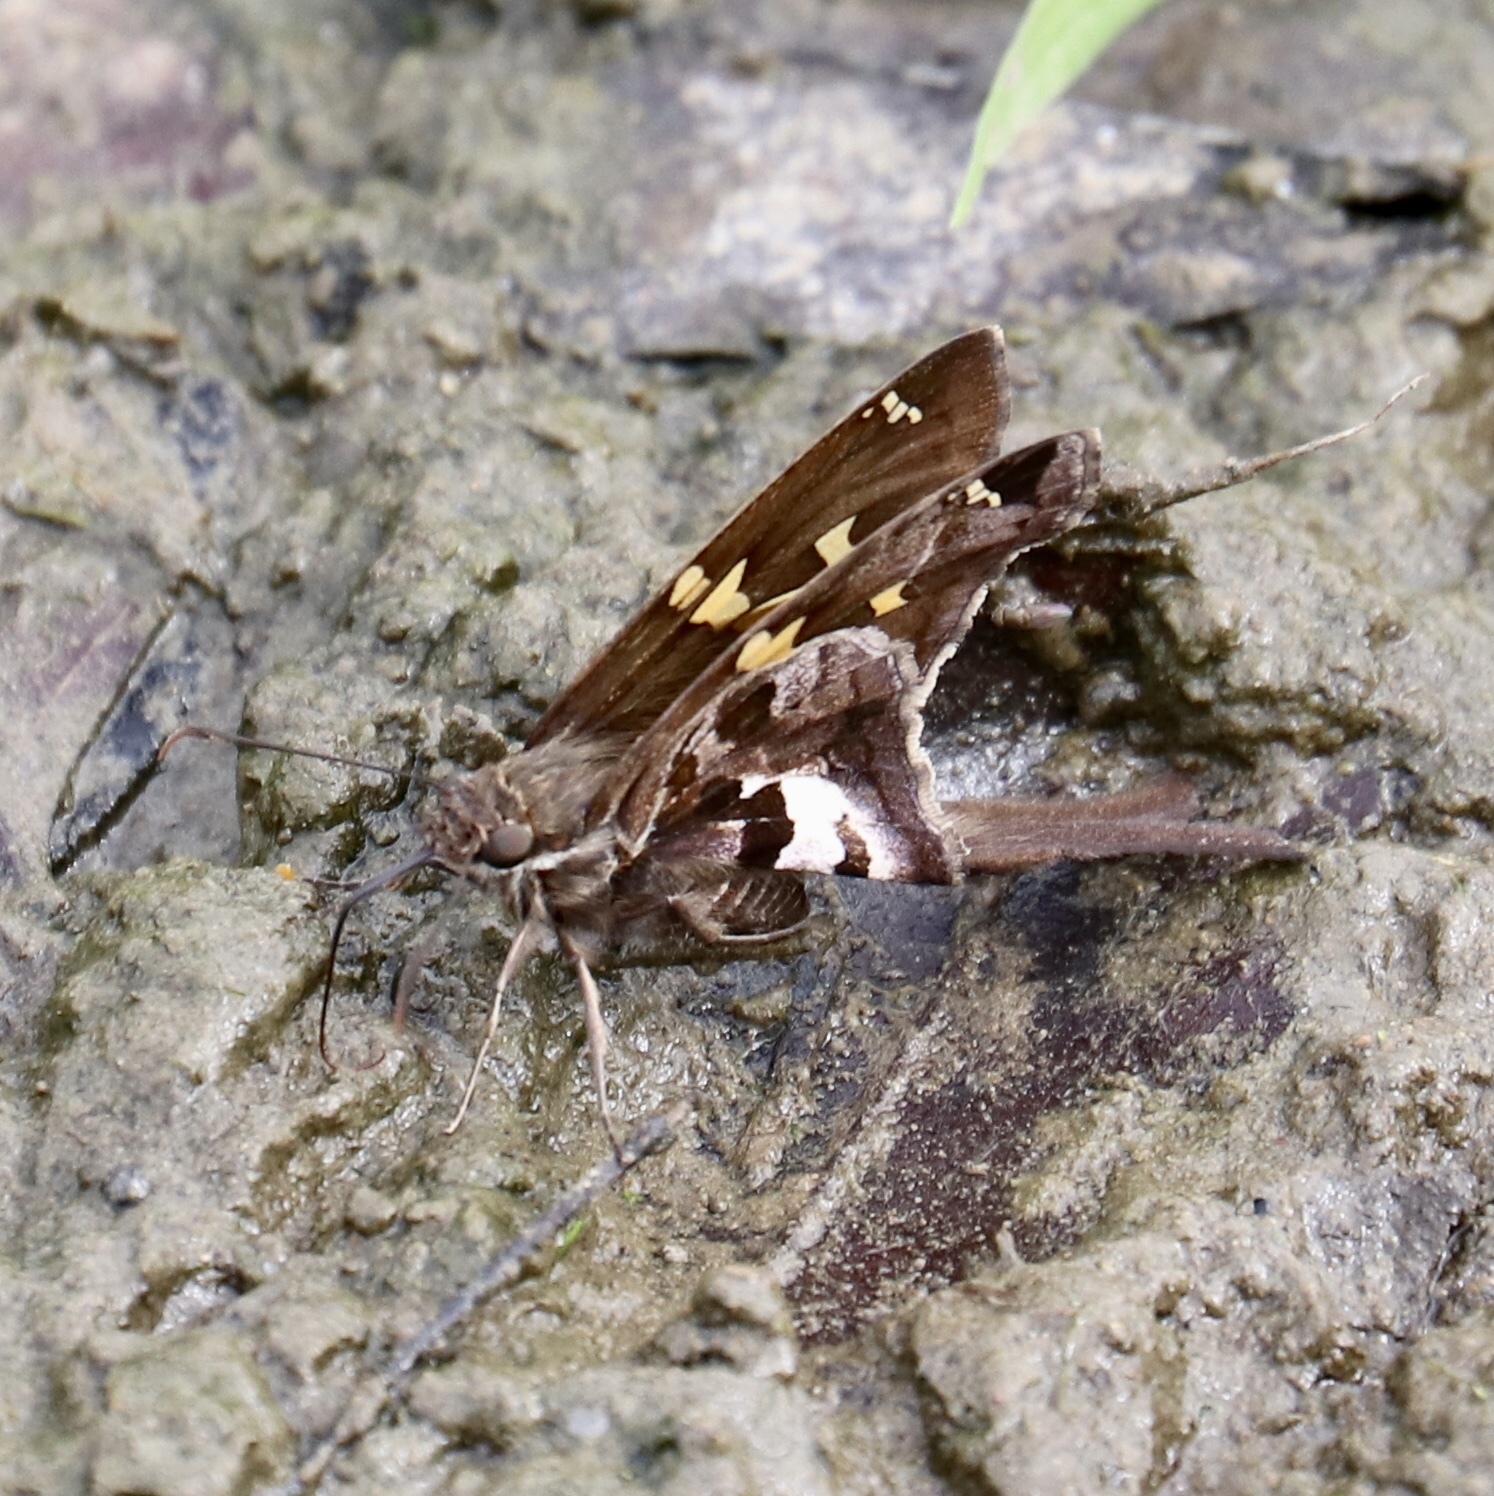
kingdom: Animalia
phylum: Arthropoda
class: Insecta
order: Lepidoptera
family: Hesperiidae
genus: Chioides
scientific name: Chioides zilpa
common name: Zilpa longtail
